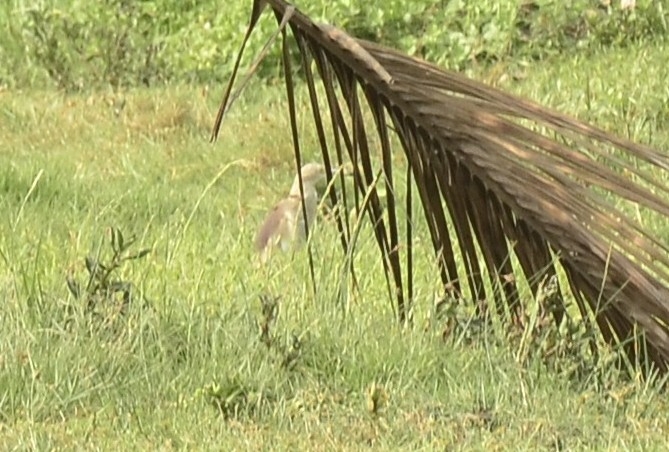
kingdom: Animalia
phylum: Chordata
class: Aves
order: Pelecaniformes
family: Ardeidae
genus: Ardeola
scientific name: Ardeola grayii
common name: Indian pond heron
